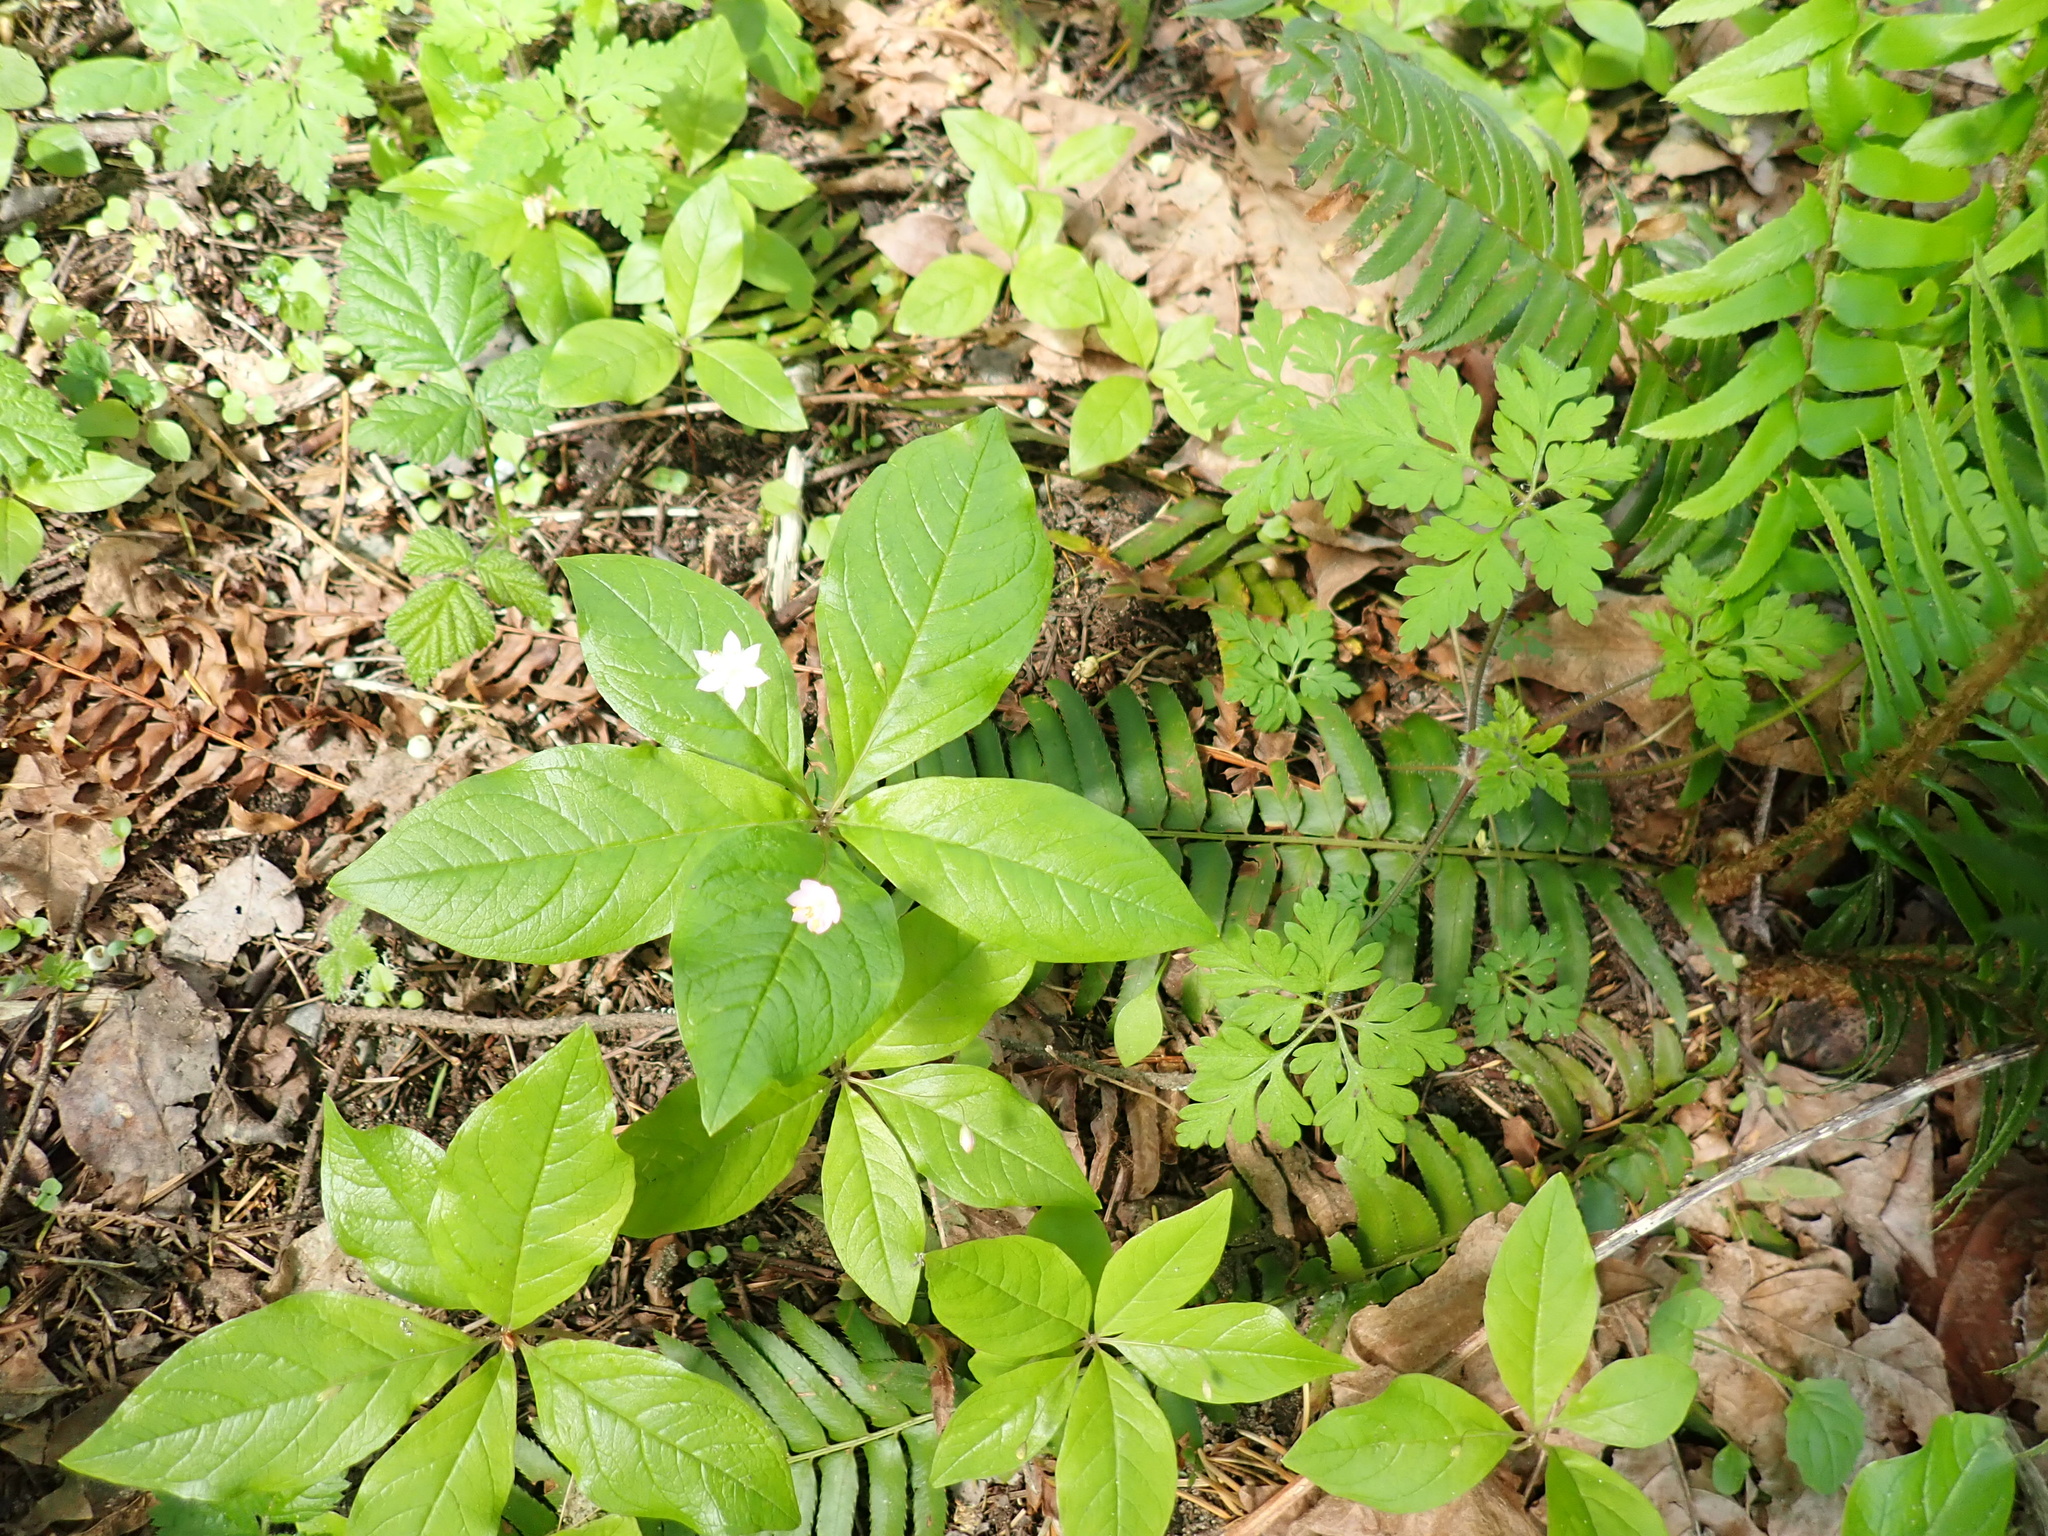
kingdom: Plantae
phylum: Tracheophyta
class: Magnoliopsida
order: Ericales
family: Primulaceae
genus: Lysimachia
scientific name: Lysimachia latifolia
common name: Pacific starflower
